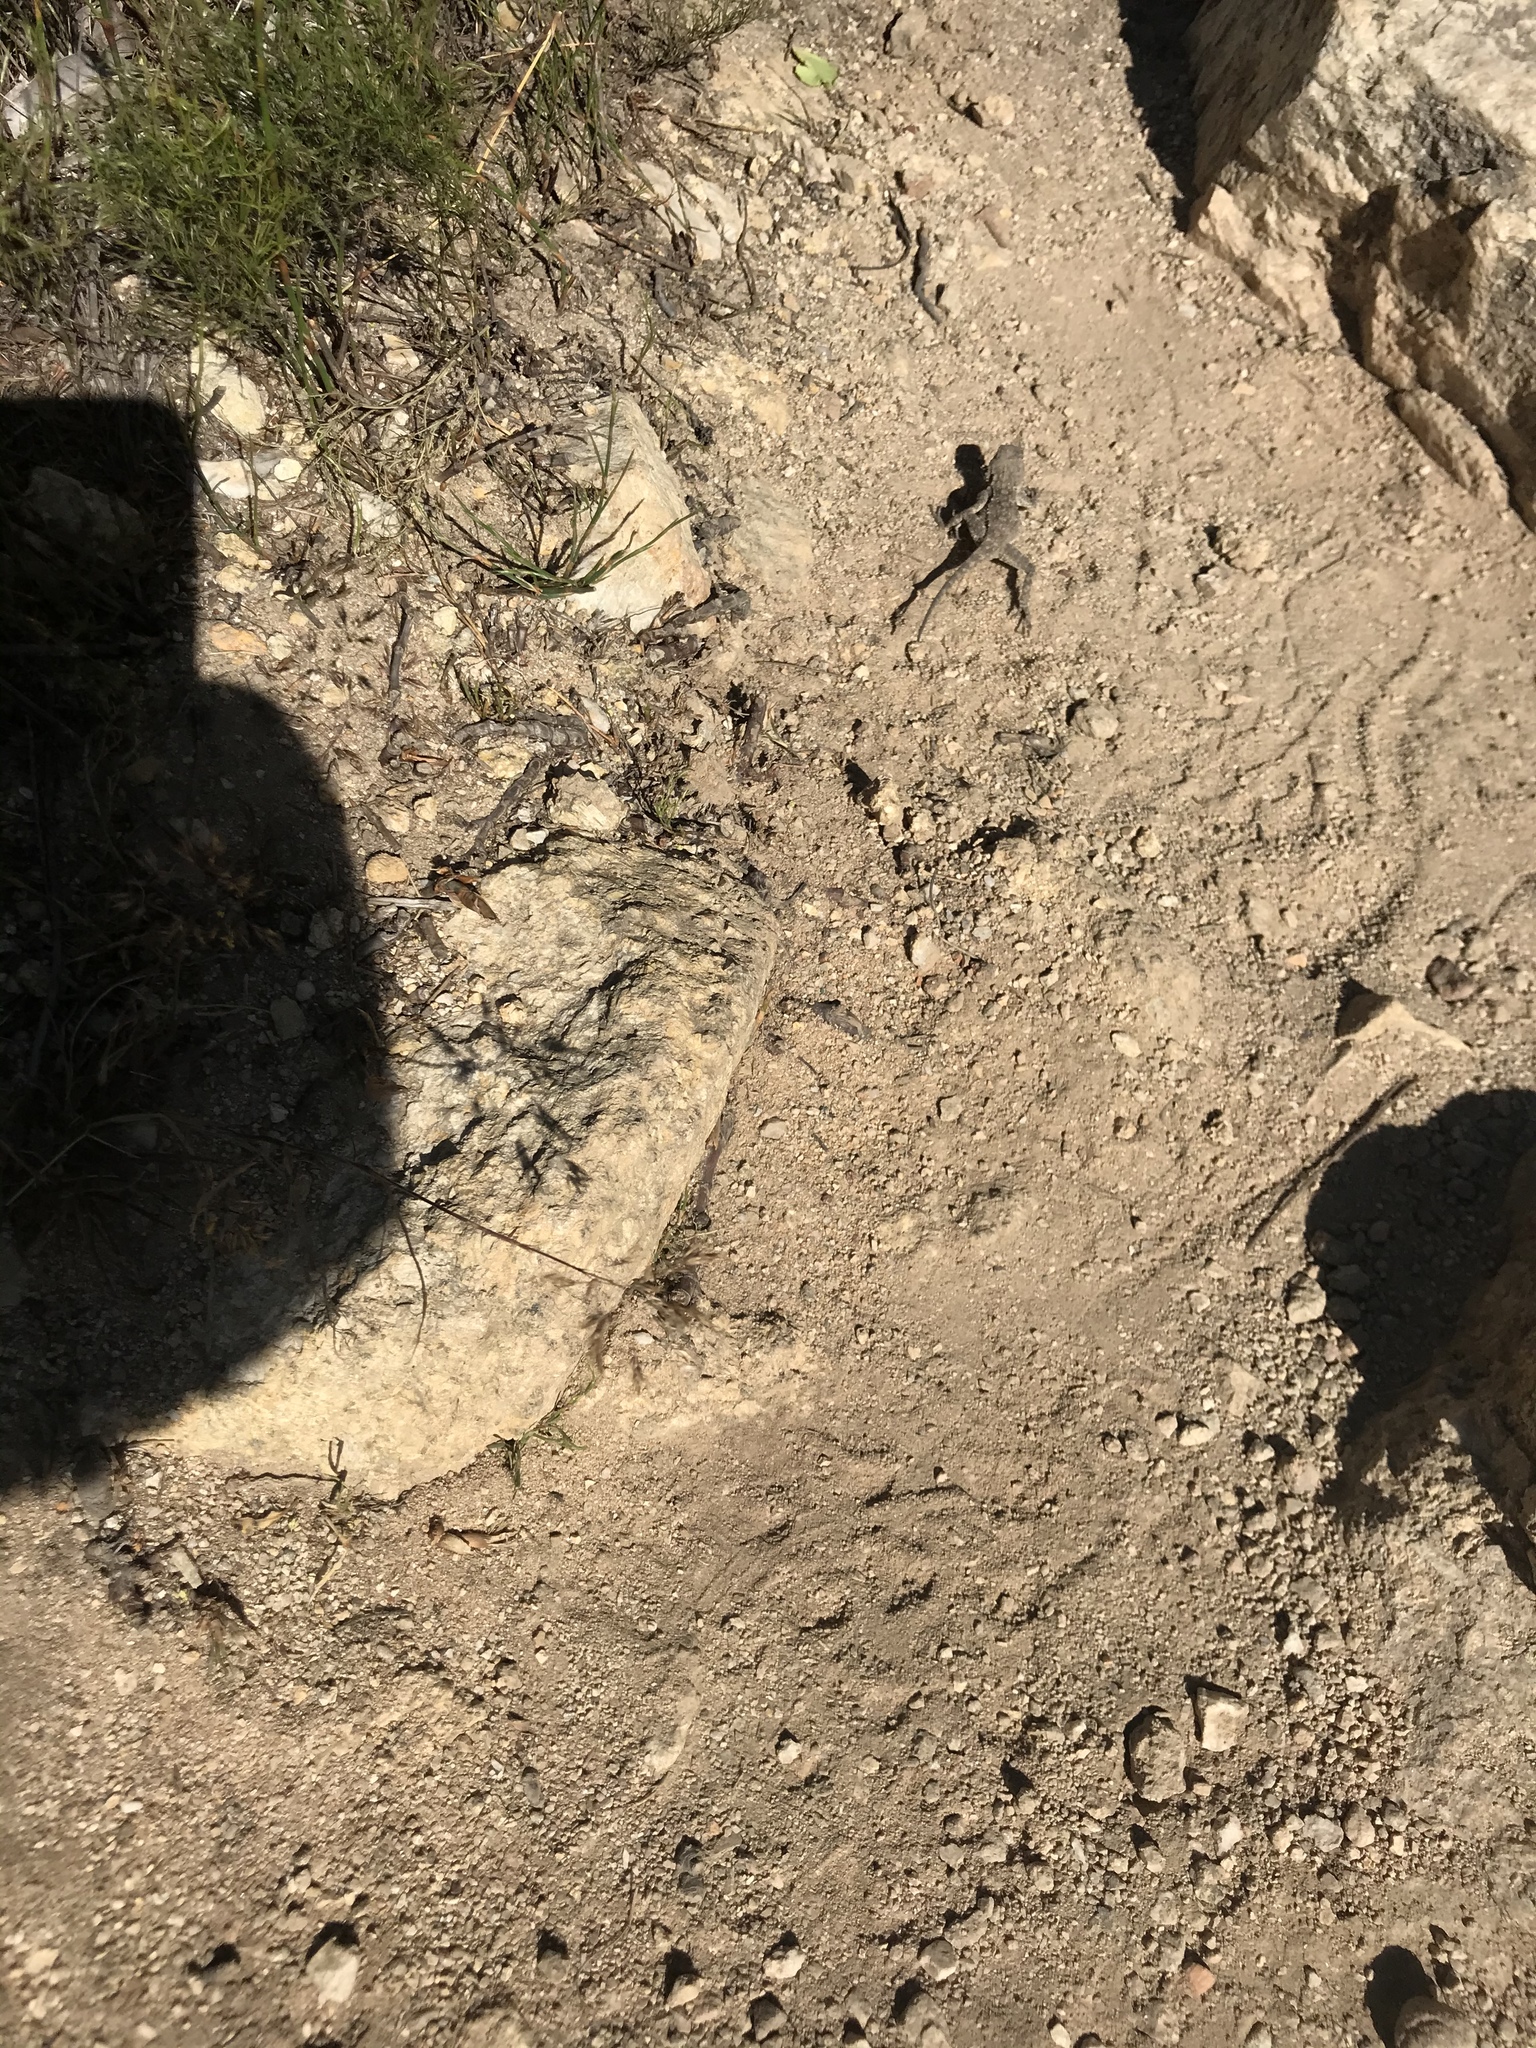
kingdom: Animalia
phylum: Chordata
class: Squamata
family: Agamidae
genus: Agama
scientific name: Agama atra
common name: Southern african rock agama
